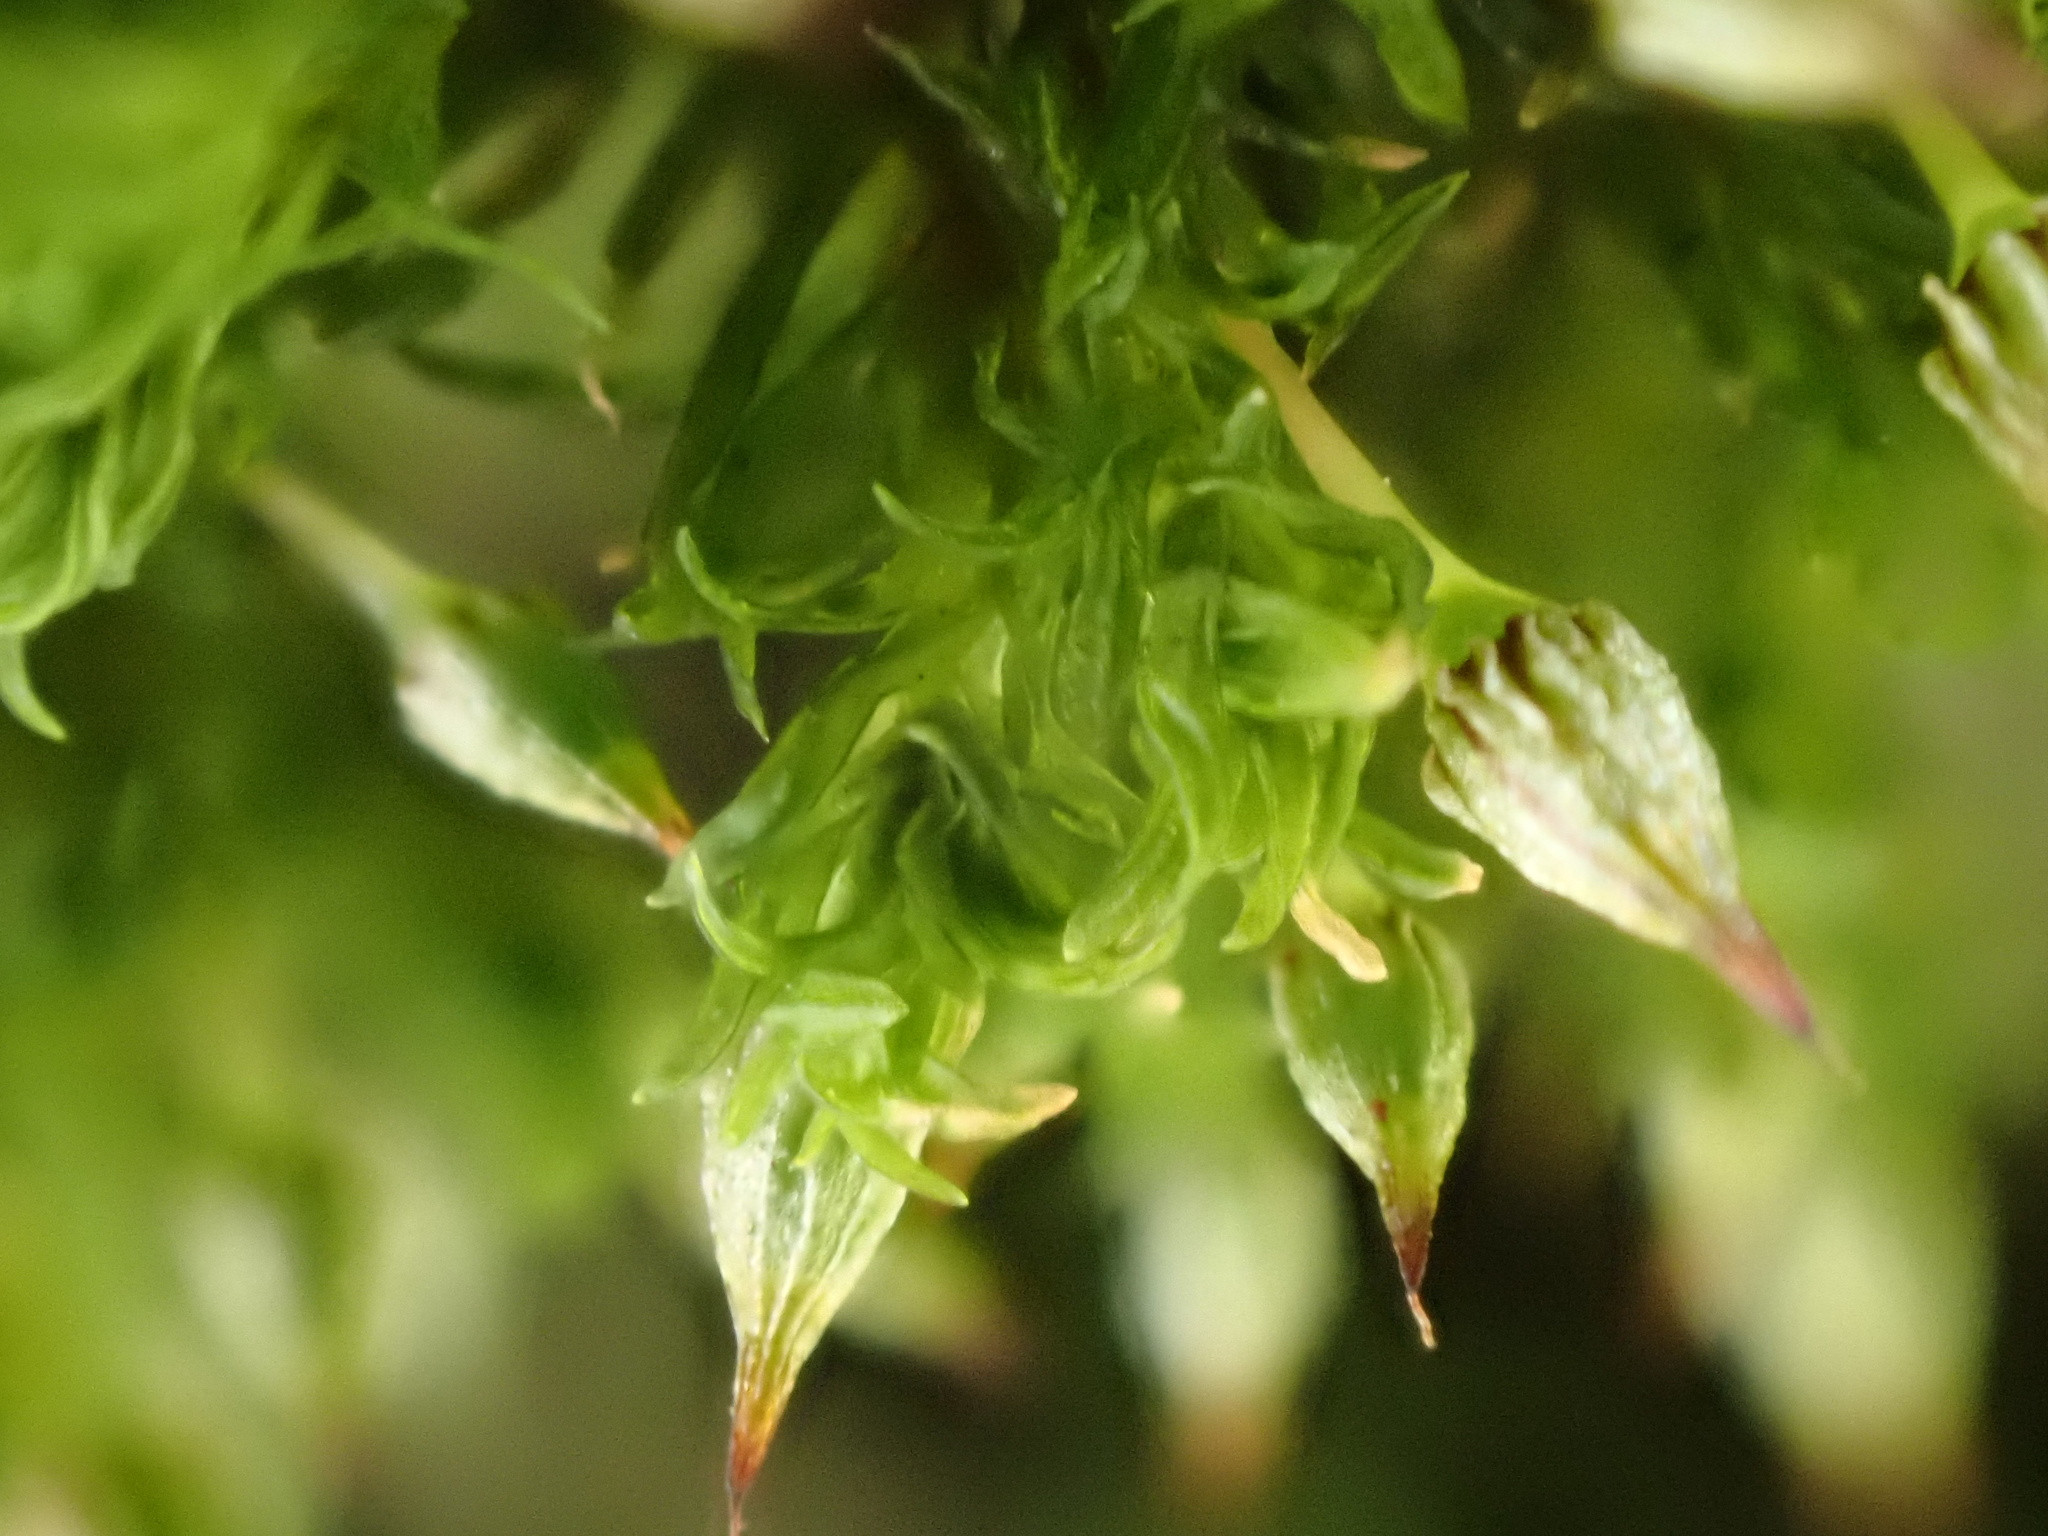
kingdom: Plantae
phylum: Bryophyta
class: Bryopsida
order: Orthotrichales
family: Orthotrichaceae
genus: Orthotrichum
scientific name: Orthotrichum pulchellum
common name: Elegant bristle-moss
